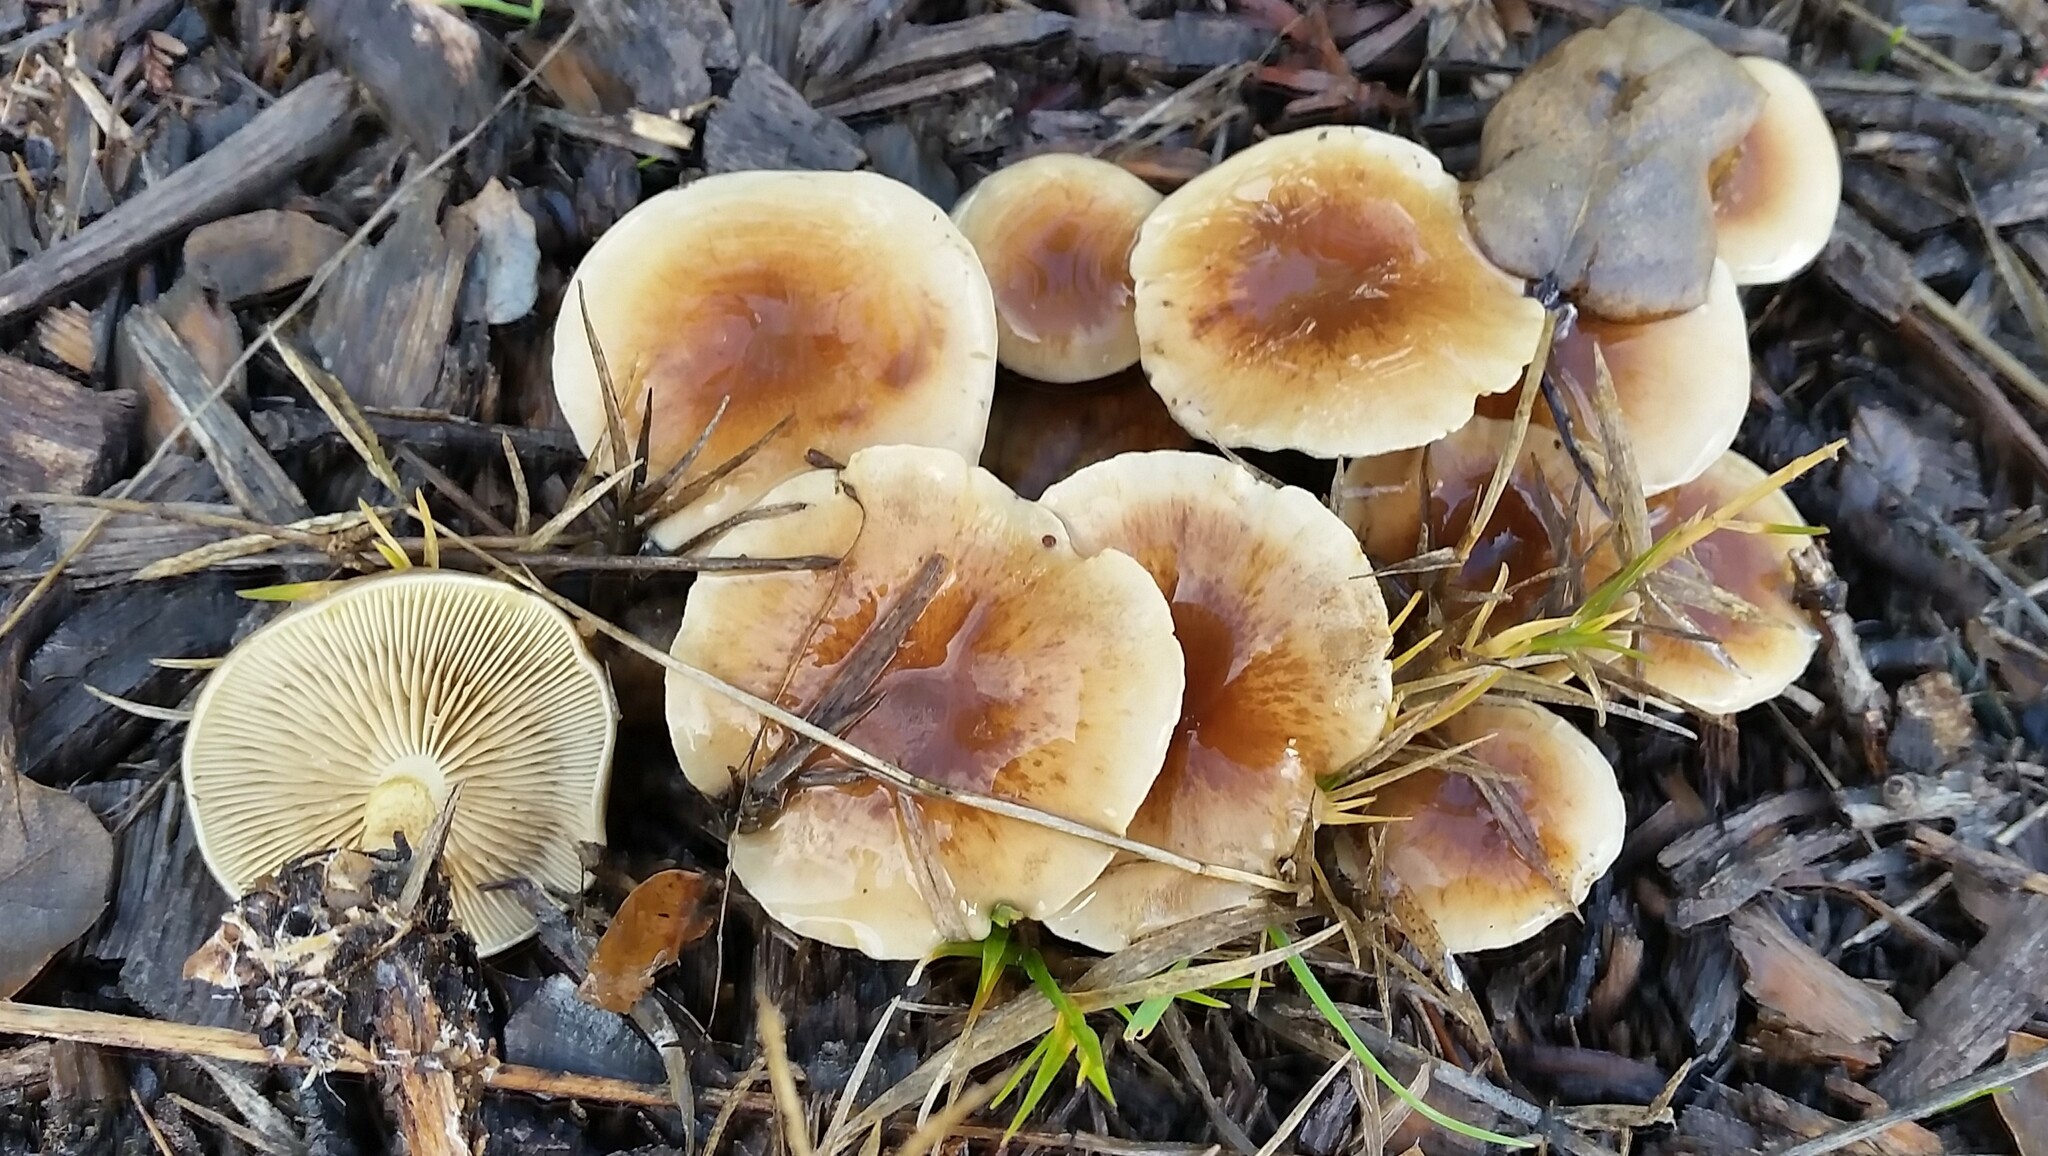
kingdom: Fungi
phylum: Basidiomycota
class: Agaricomycetes
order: Agaricales
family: Strophariaceae
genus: Pholiota
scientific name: Pholiota spumosa
